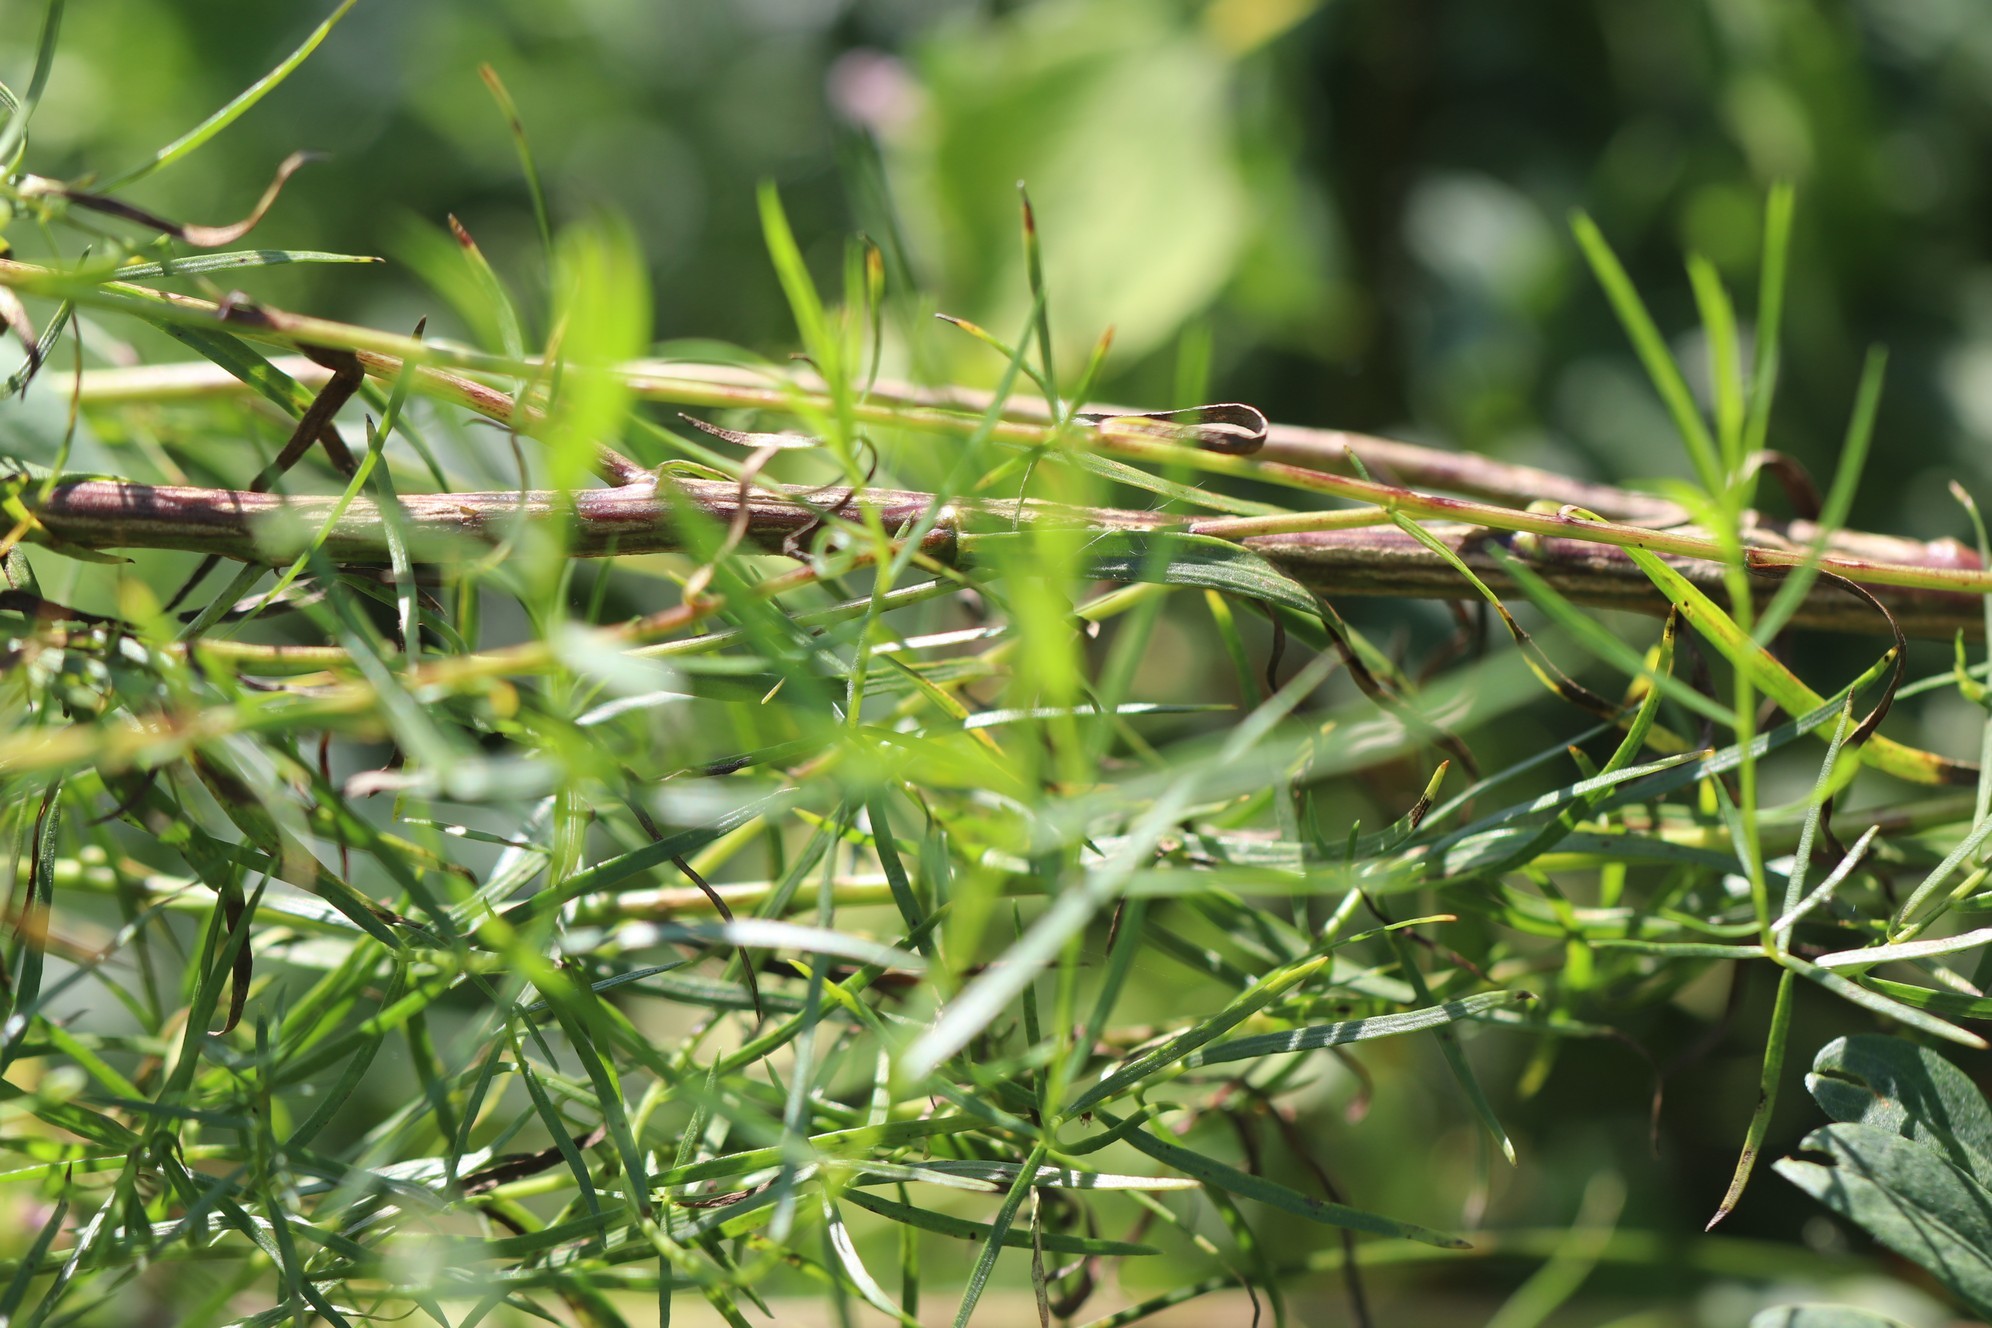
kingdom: Plantae
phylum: Tracheophyta
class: Magnoliopsida
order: Asterales
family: Asteraceae
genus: Artemisia
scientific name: Artemisia dracunculus
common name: Tarragon
